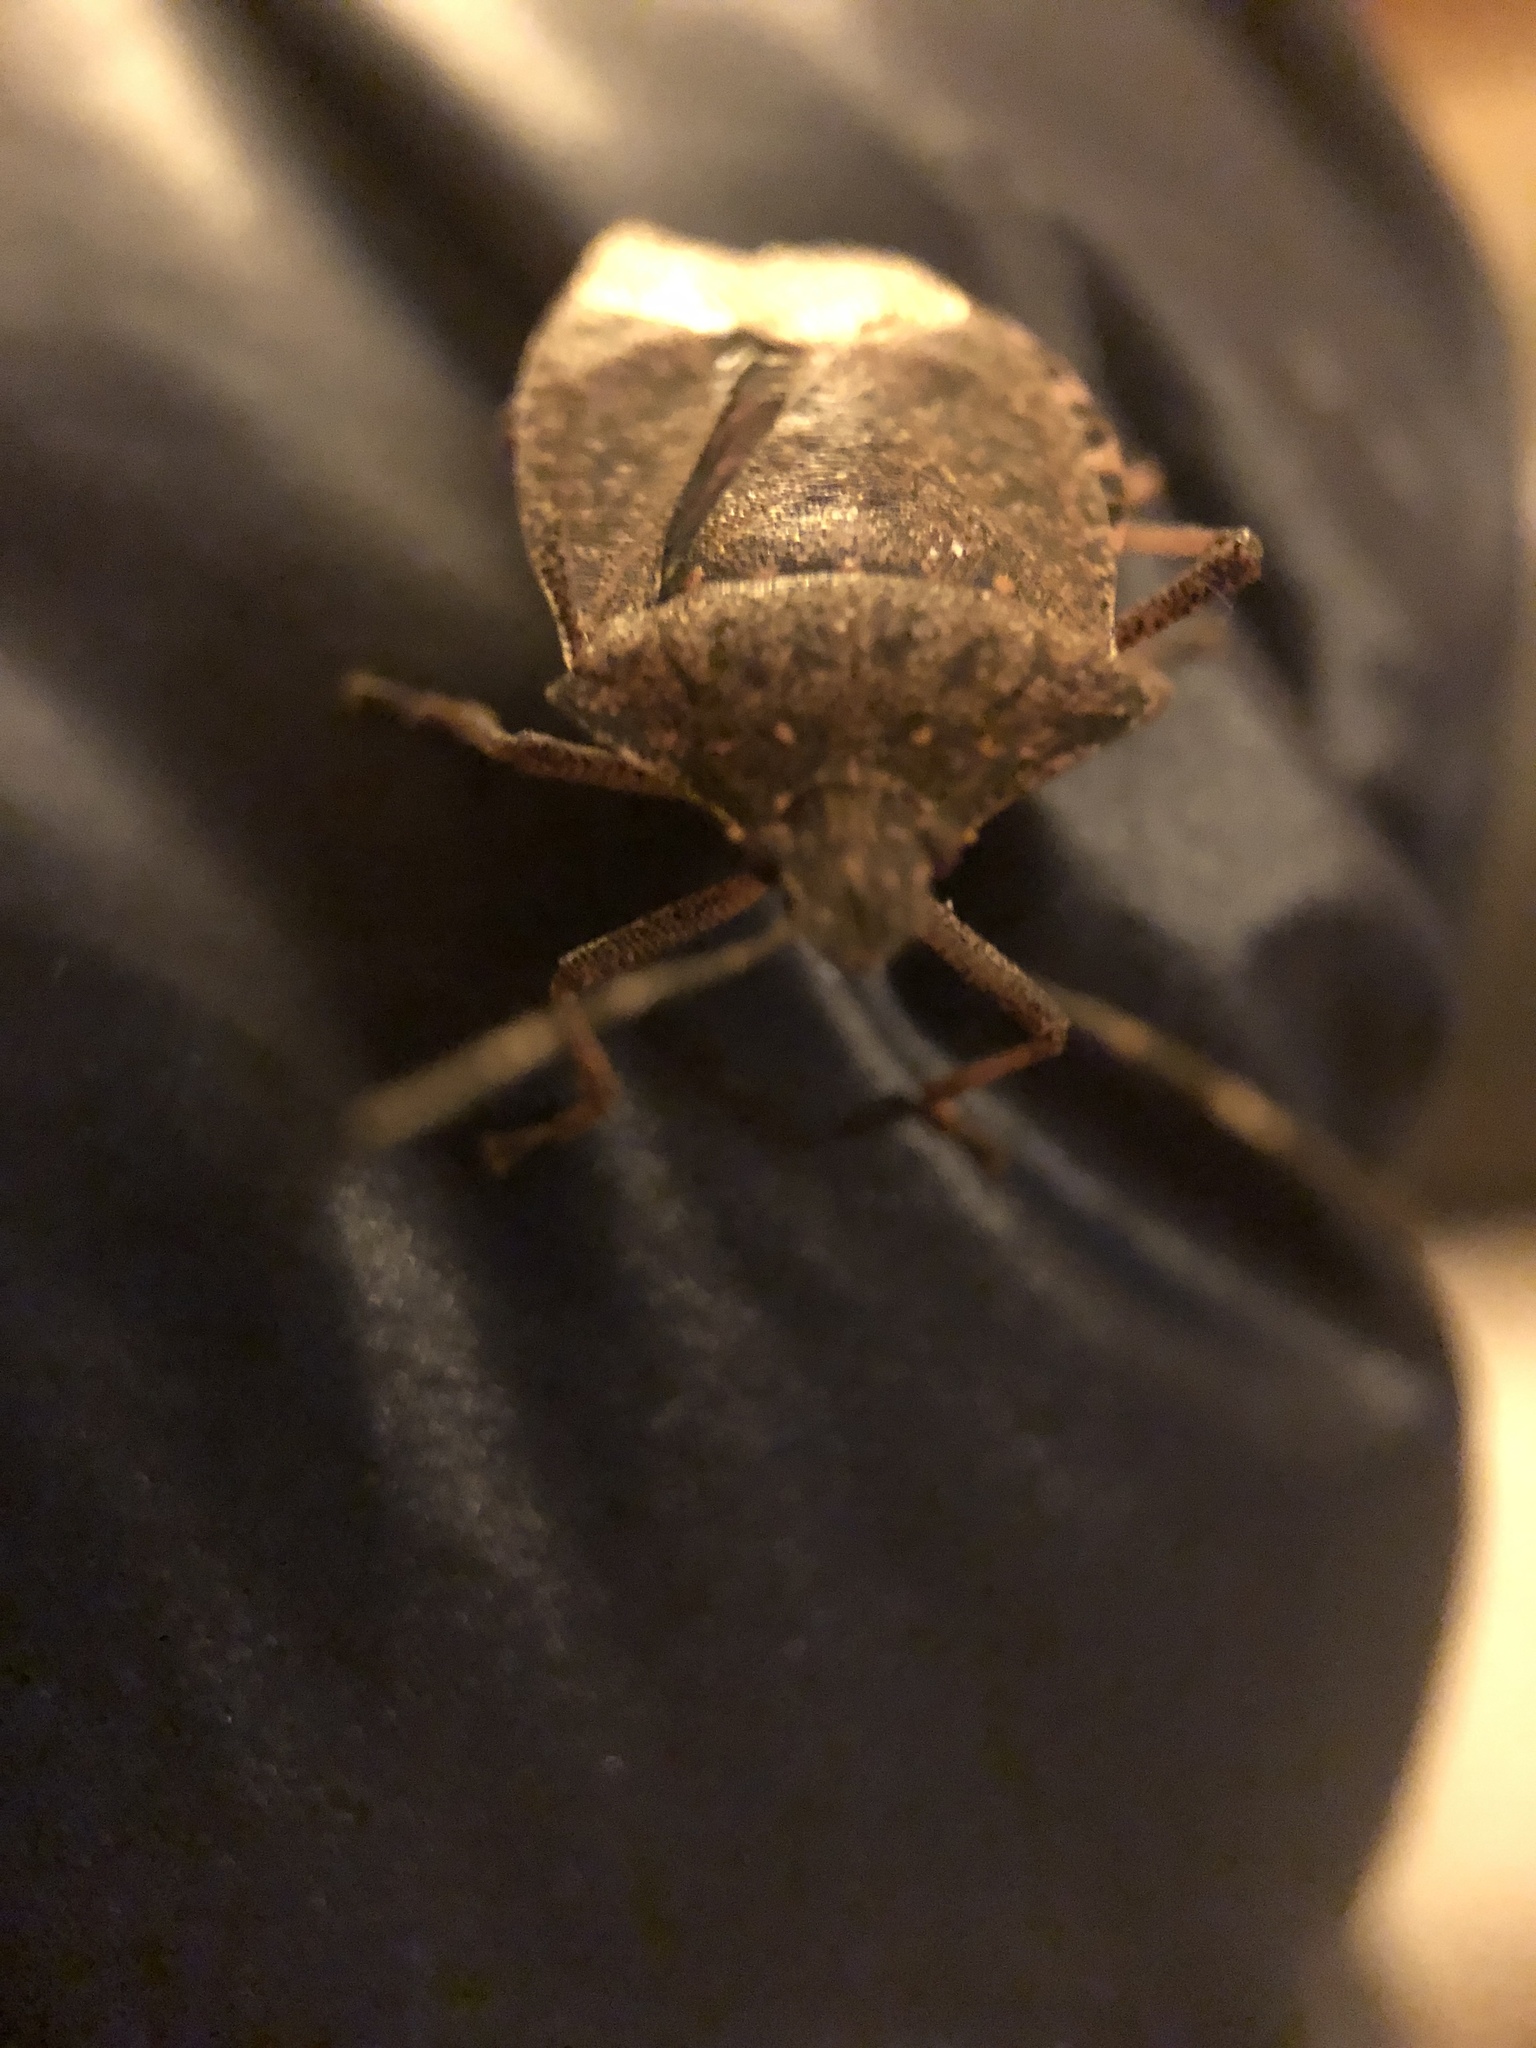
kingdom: Animalia
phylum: Arthropoda
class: Insecta
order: Hemiptera
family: Pentatomidae
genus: Halyomorpha
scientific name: Halyomorpha halys
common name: Brown marmorated stink bug
